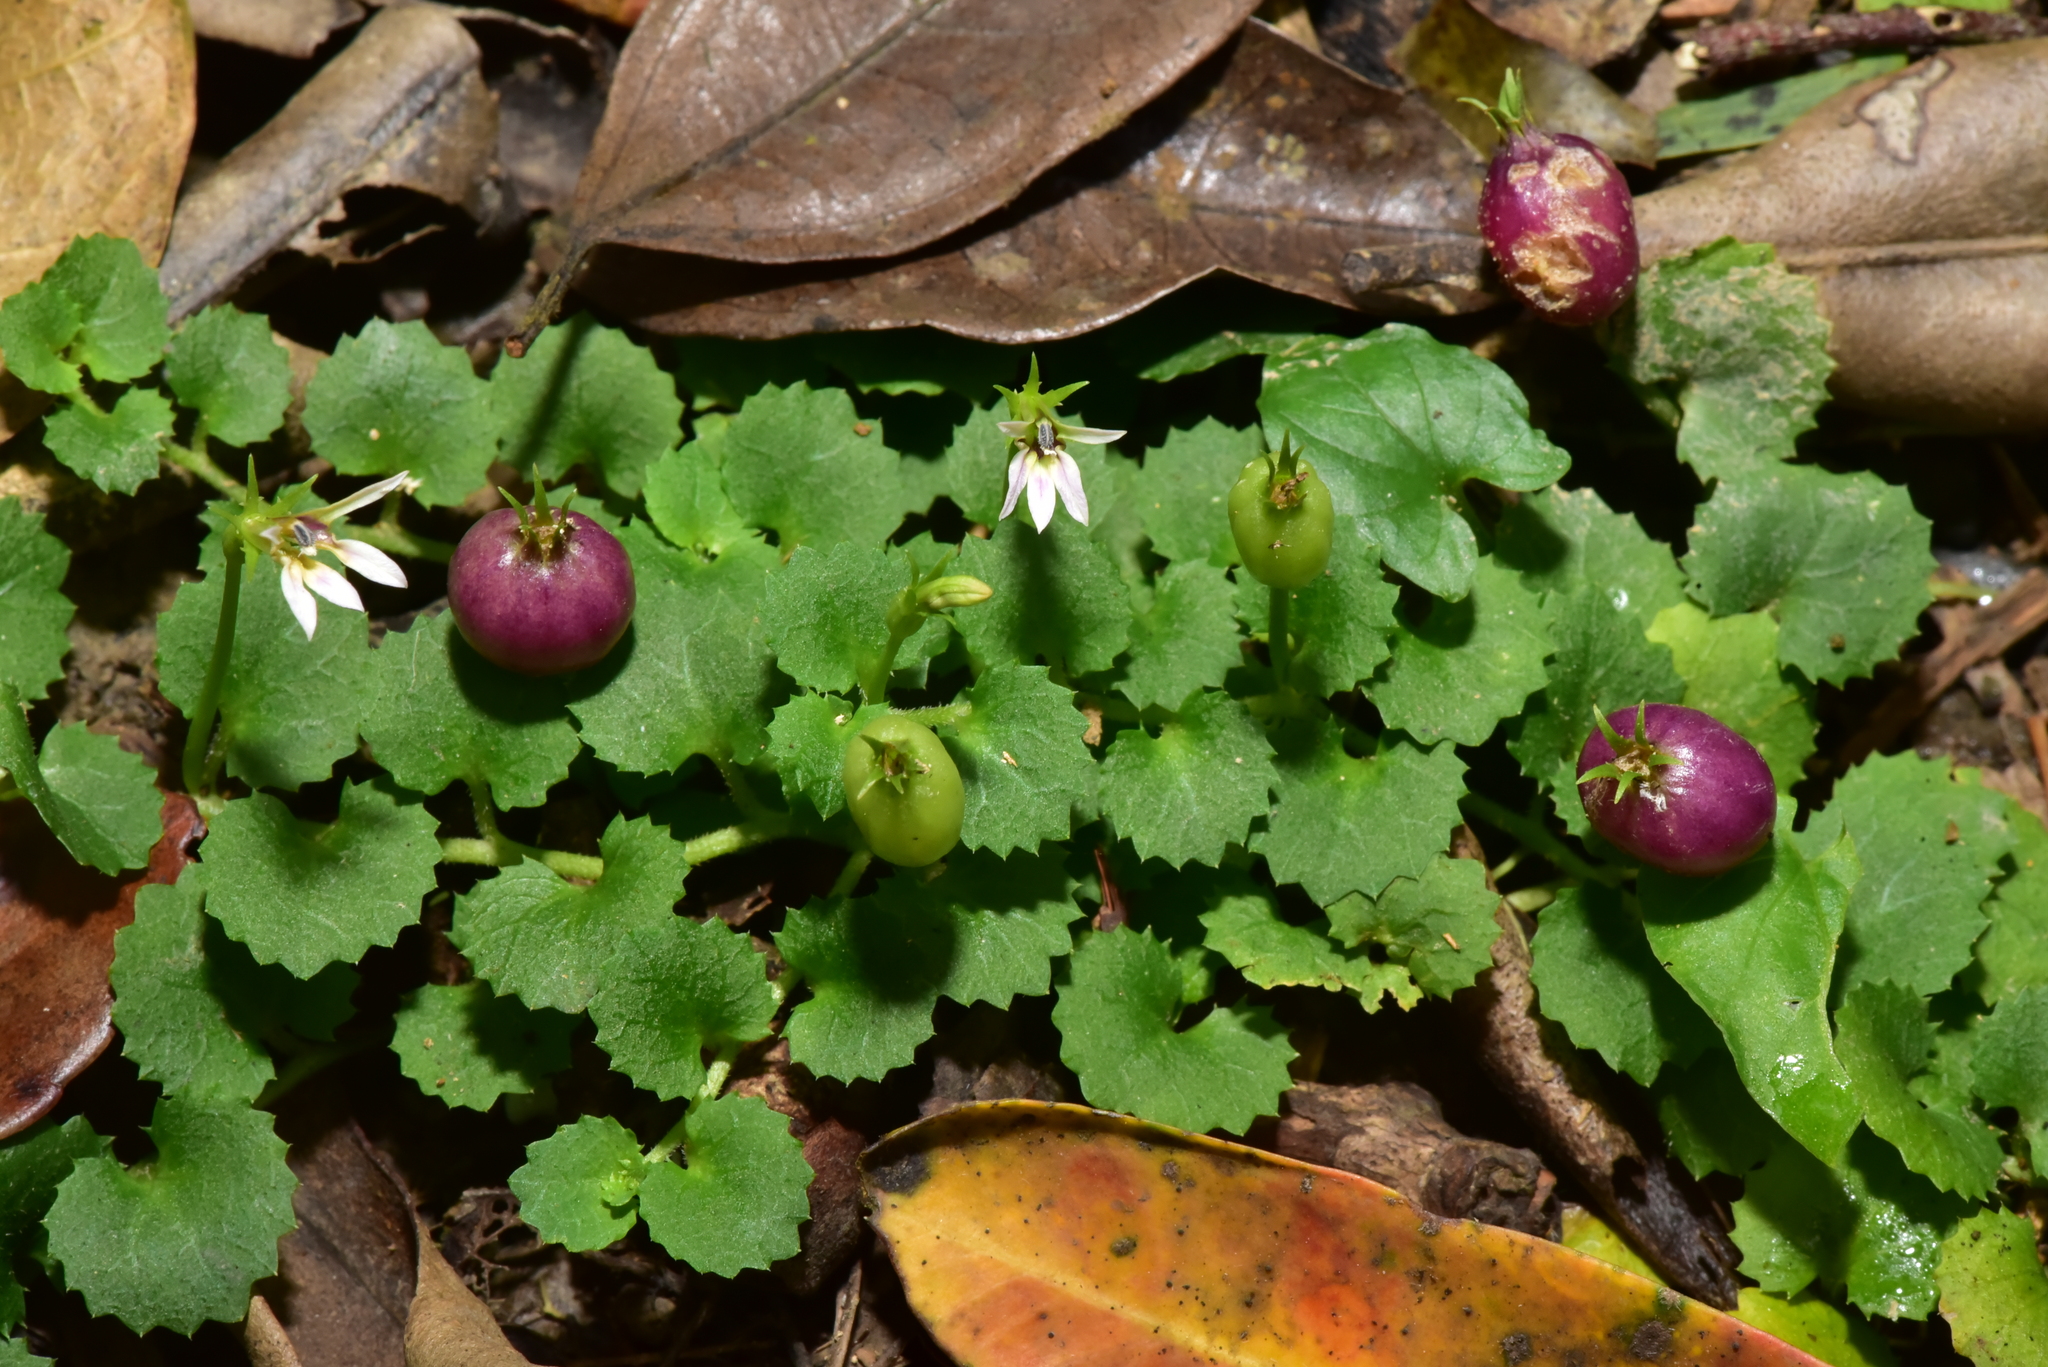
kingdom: Plantae
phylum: Tracheophyta
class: Magnoliopsida
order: Asterales
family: Campanulaceae
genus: Lobelia
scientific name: Lobelia nummularia
